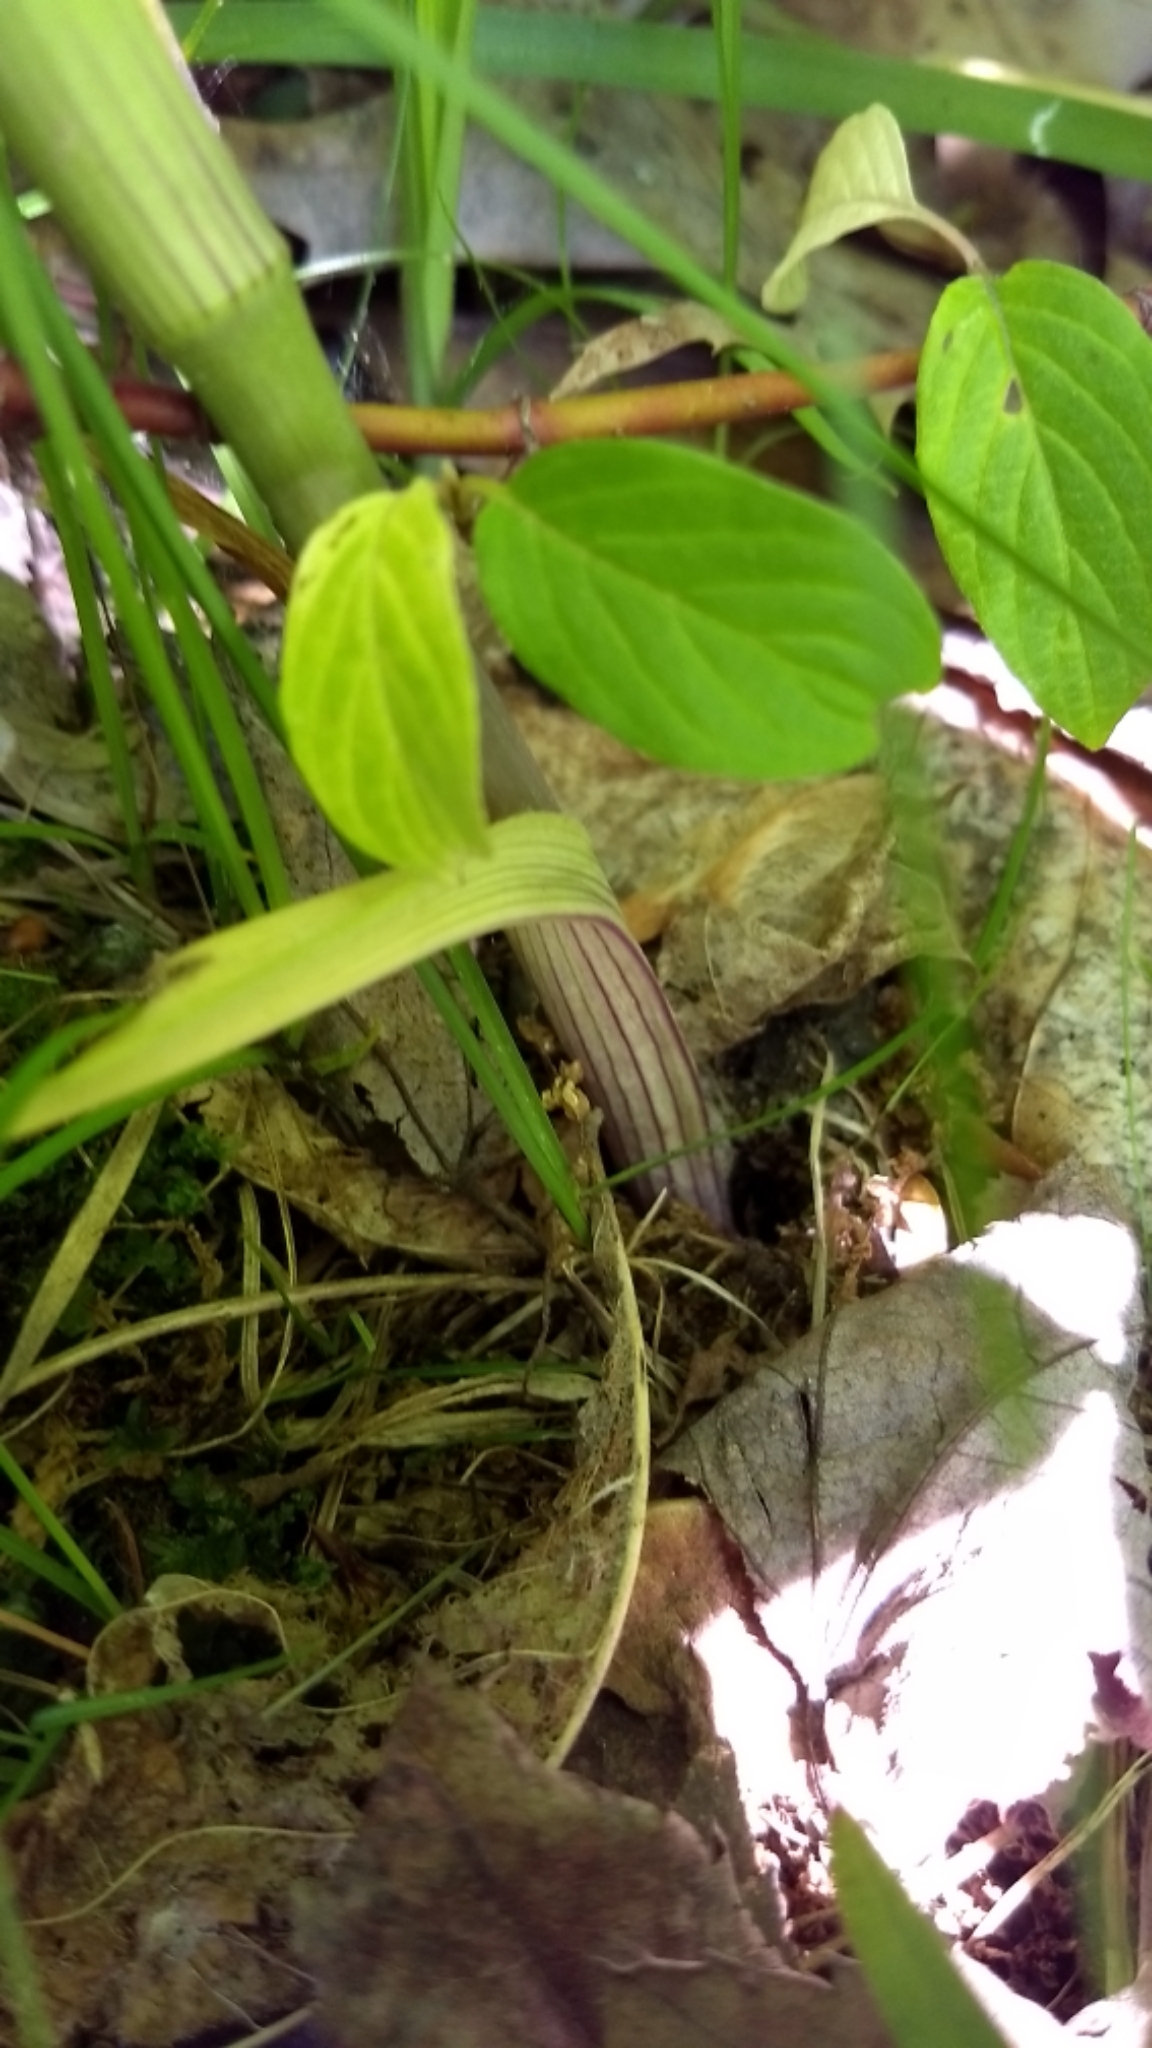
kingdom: Plantae
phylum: Tracheophyta
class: Liliopsida
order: Commelinales
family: Commelinaceae
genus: Tradescantia
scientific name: Tradescantia virginiana
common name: Spiderwort
